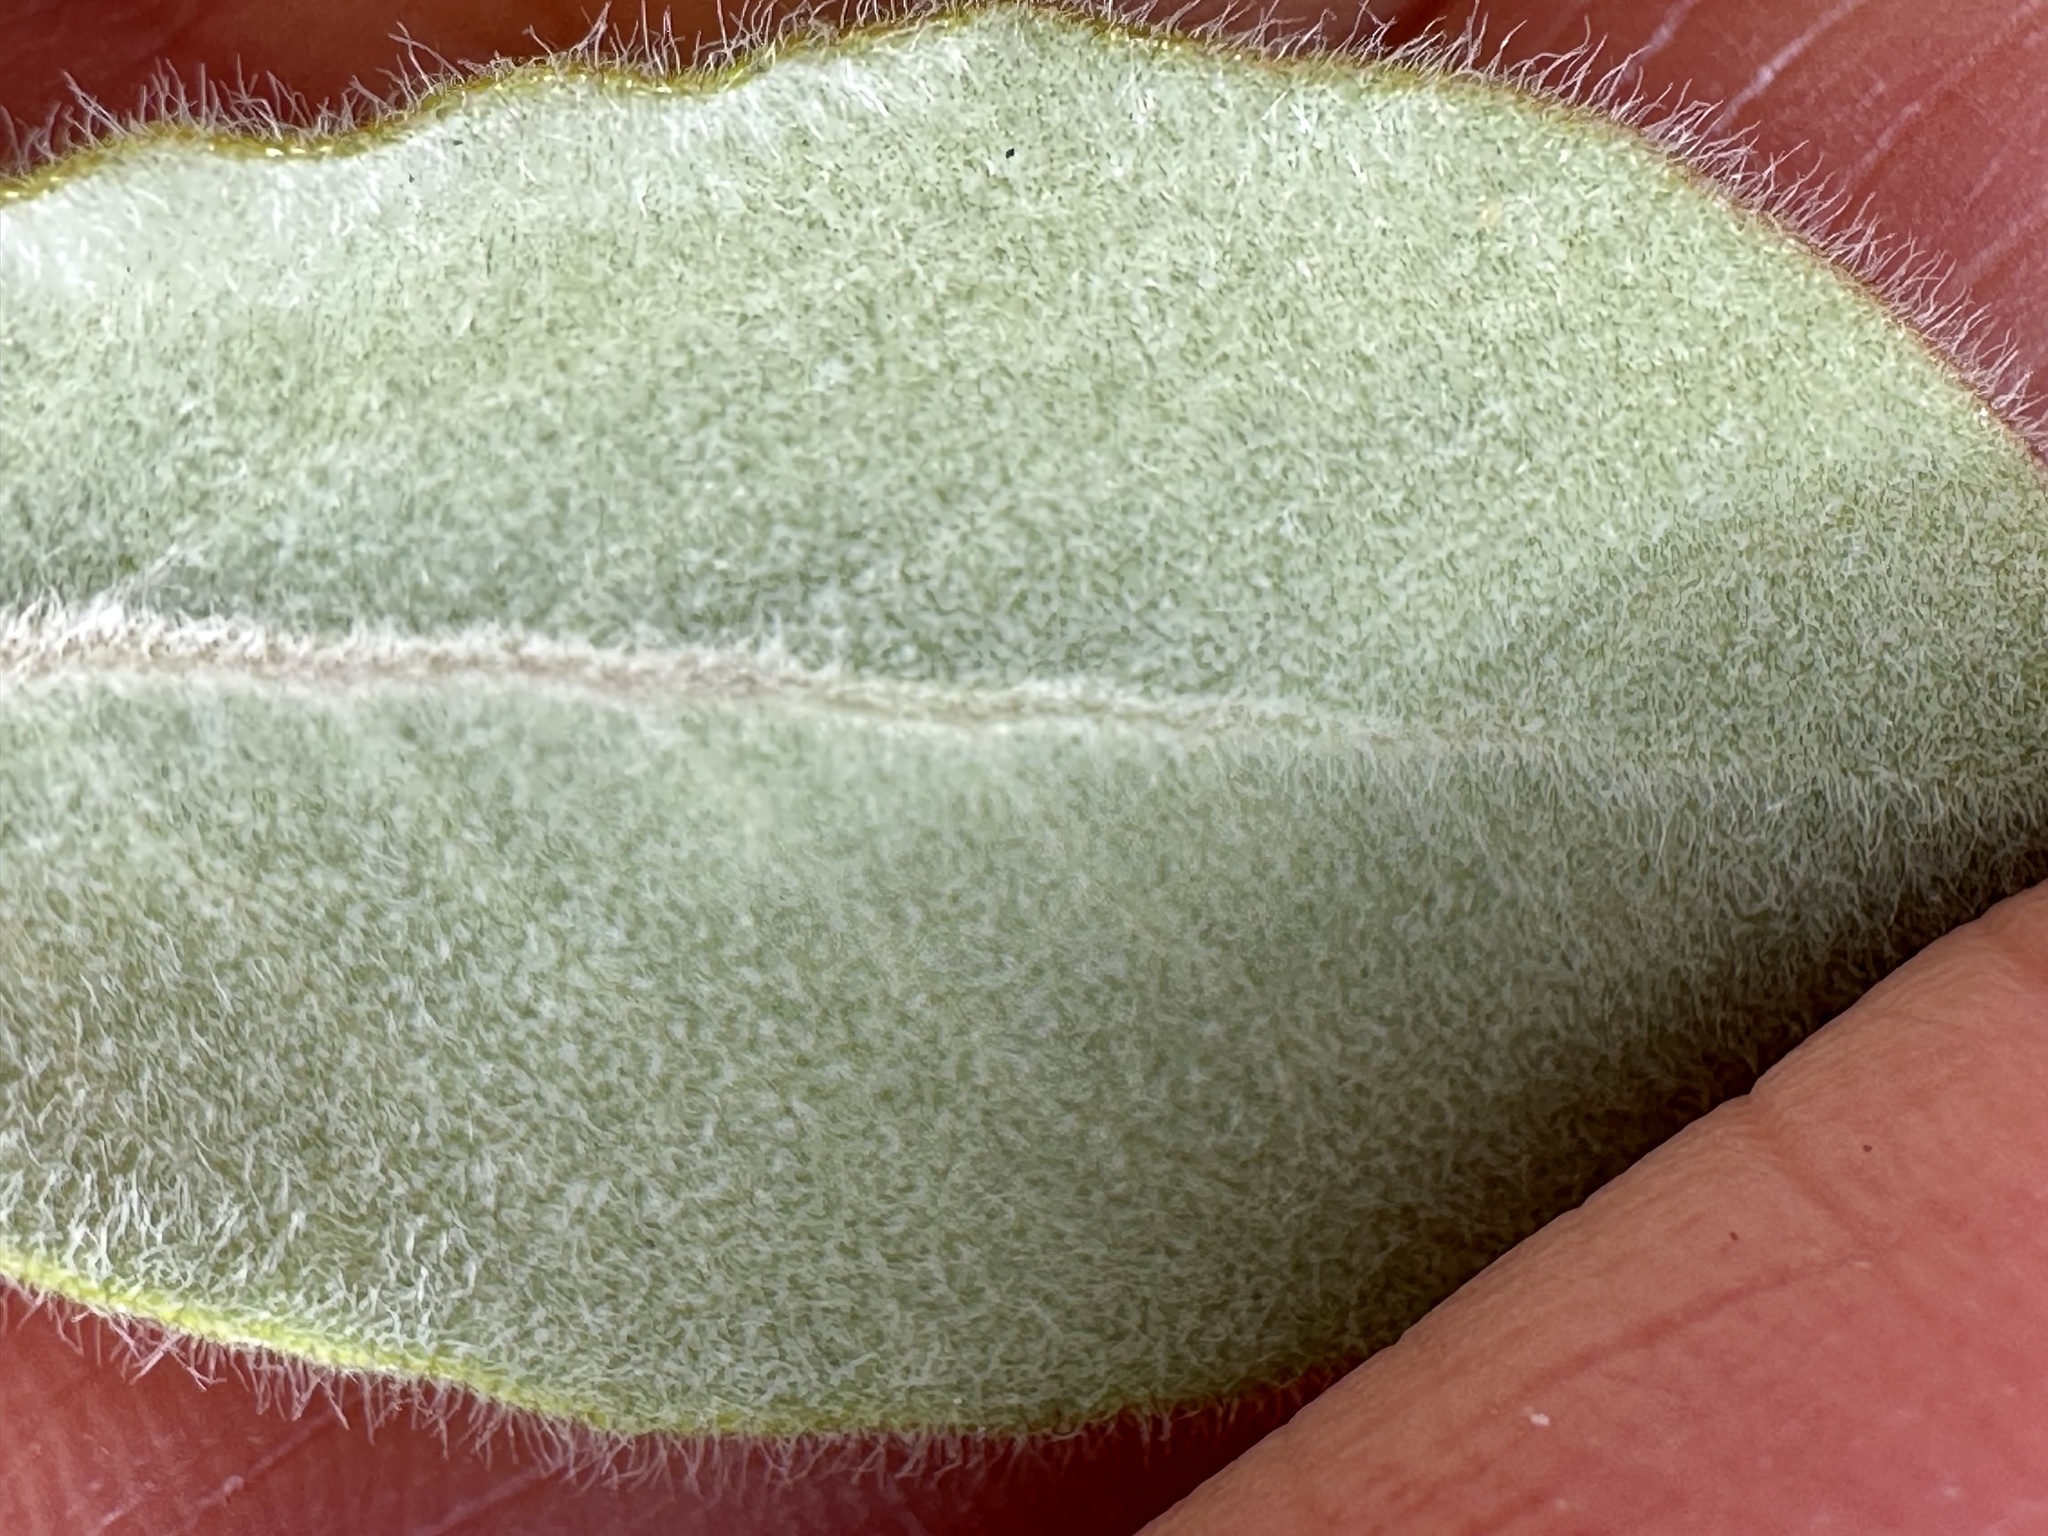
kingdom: Plantae
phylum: Tracheophyta
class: Magnoliopsida
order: Ericales
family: Ericaceae
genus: Arctostaphylos
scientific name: Arctostaphylos tomentosa
